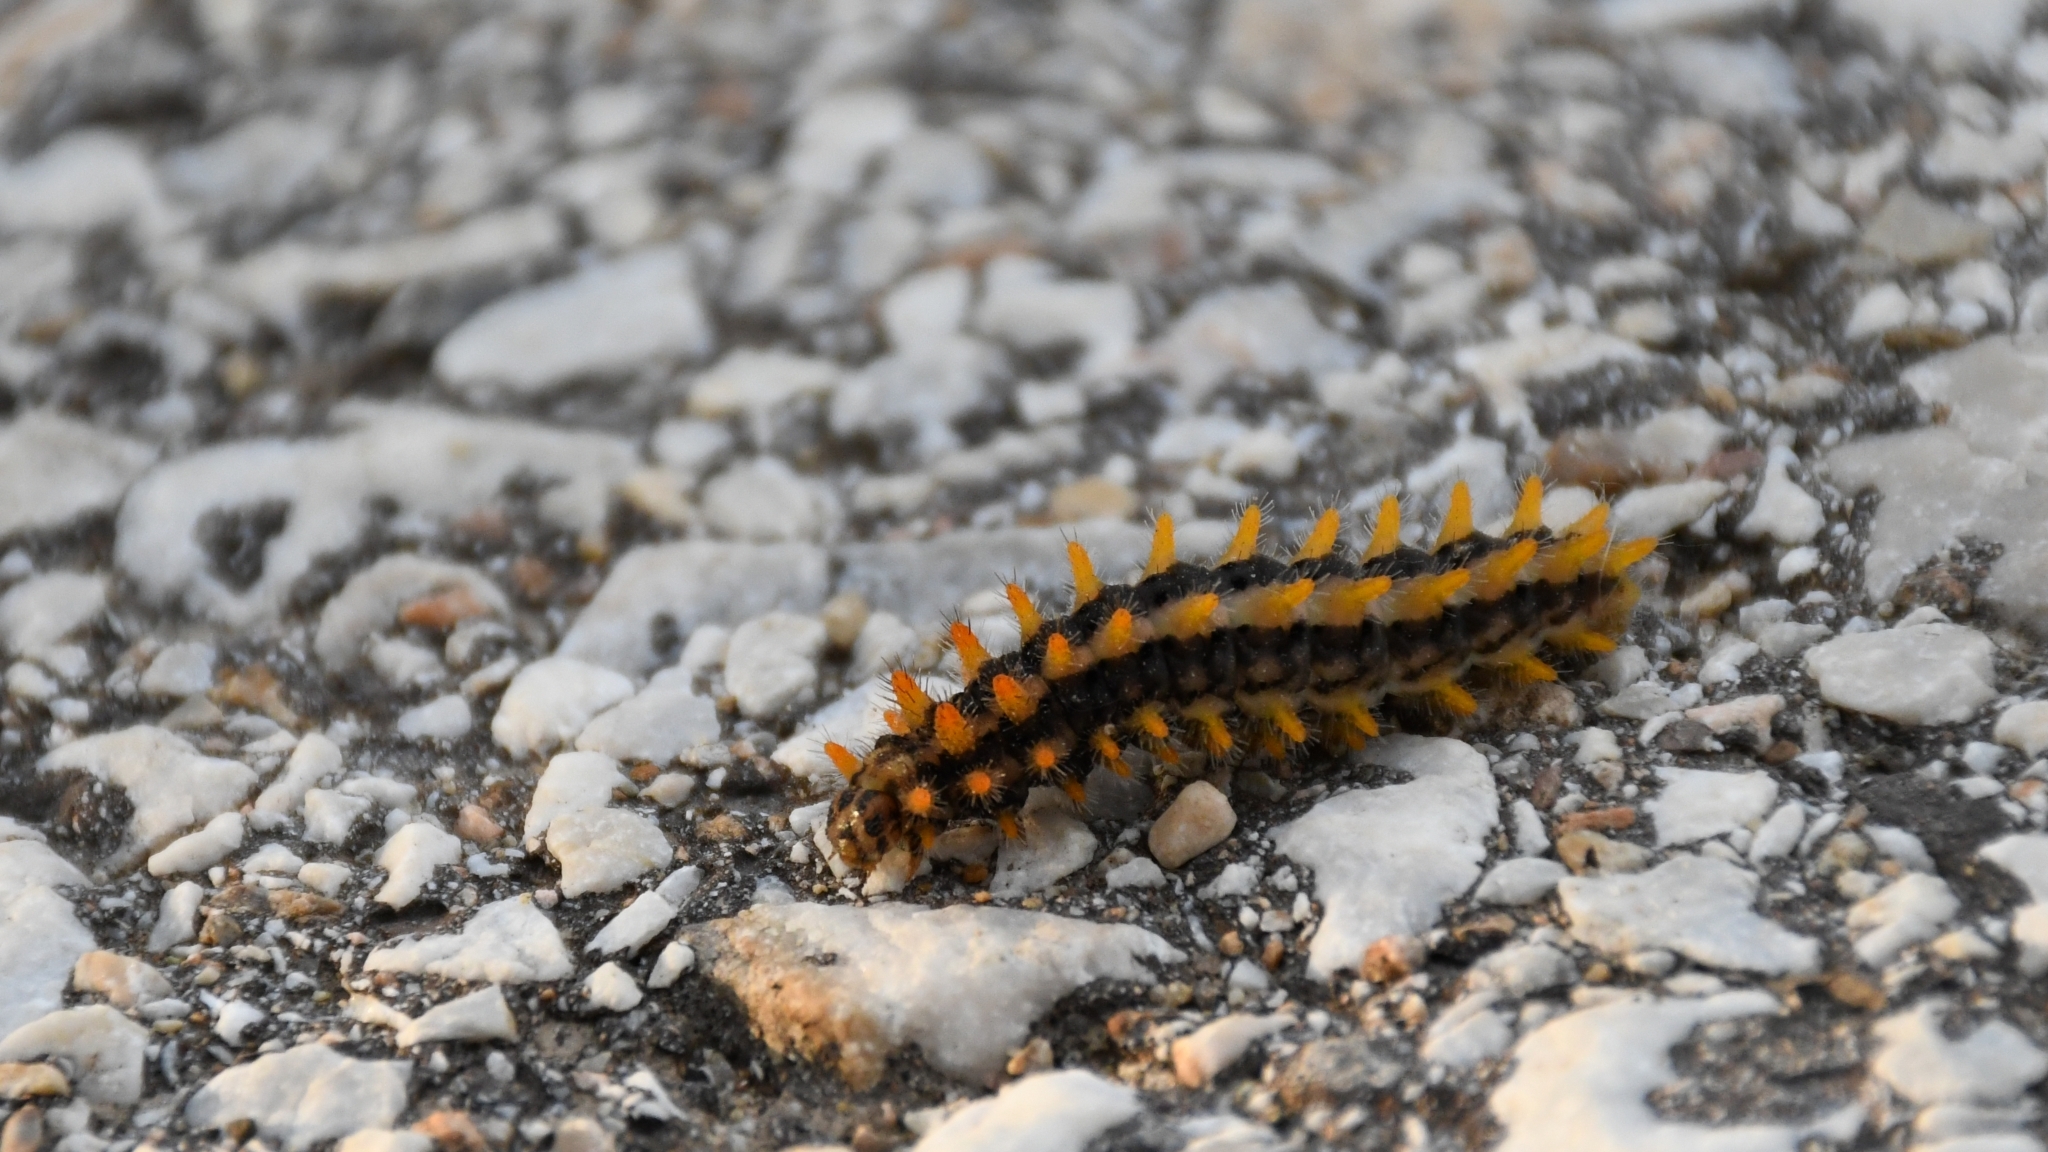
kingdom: Animalia
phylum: Arthropoda
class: Insecta
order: Lepidoptera
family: Papilionidae
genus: Zerynthia
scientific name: Zerynthia cerisy
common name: Eastern festoon
